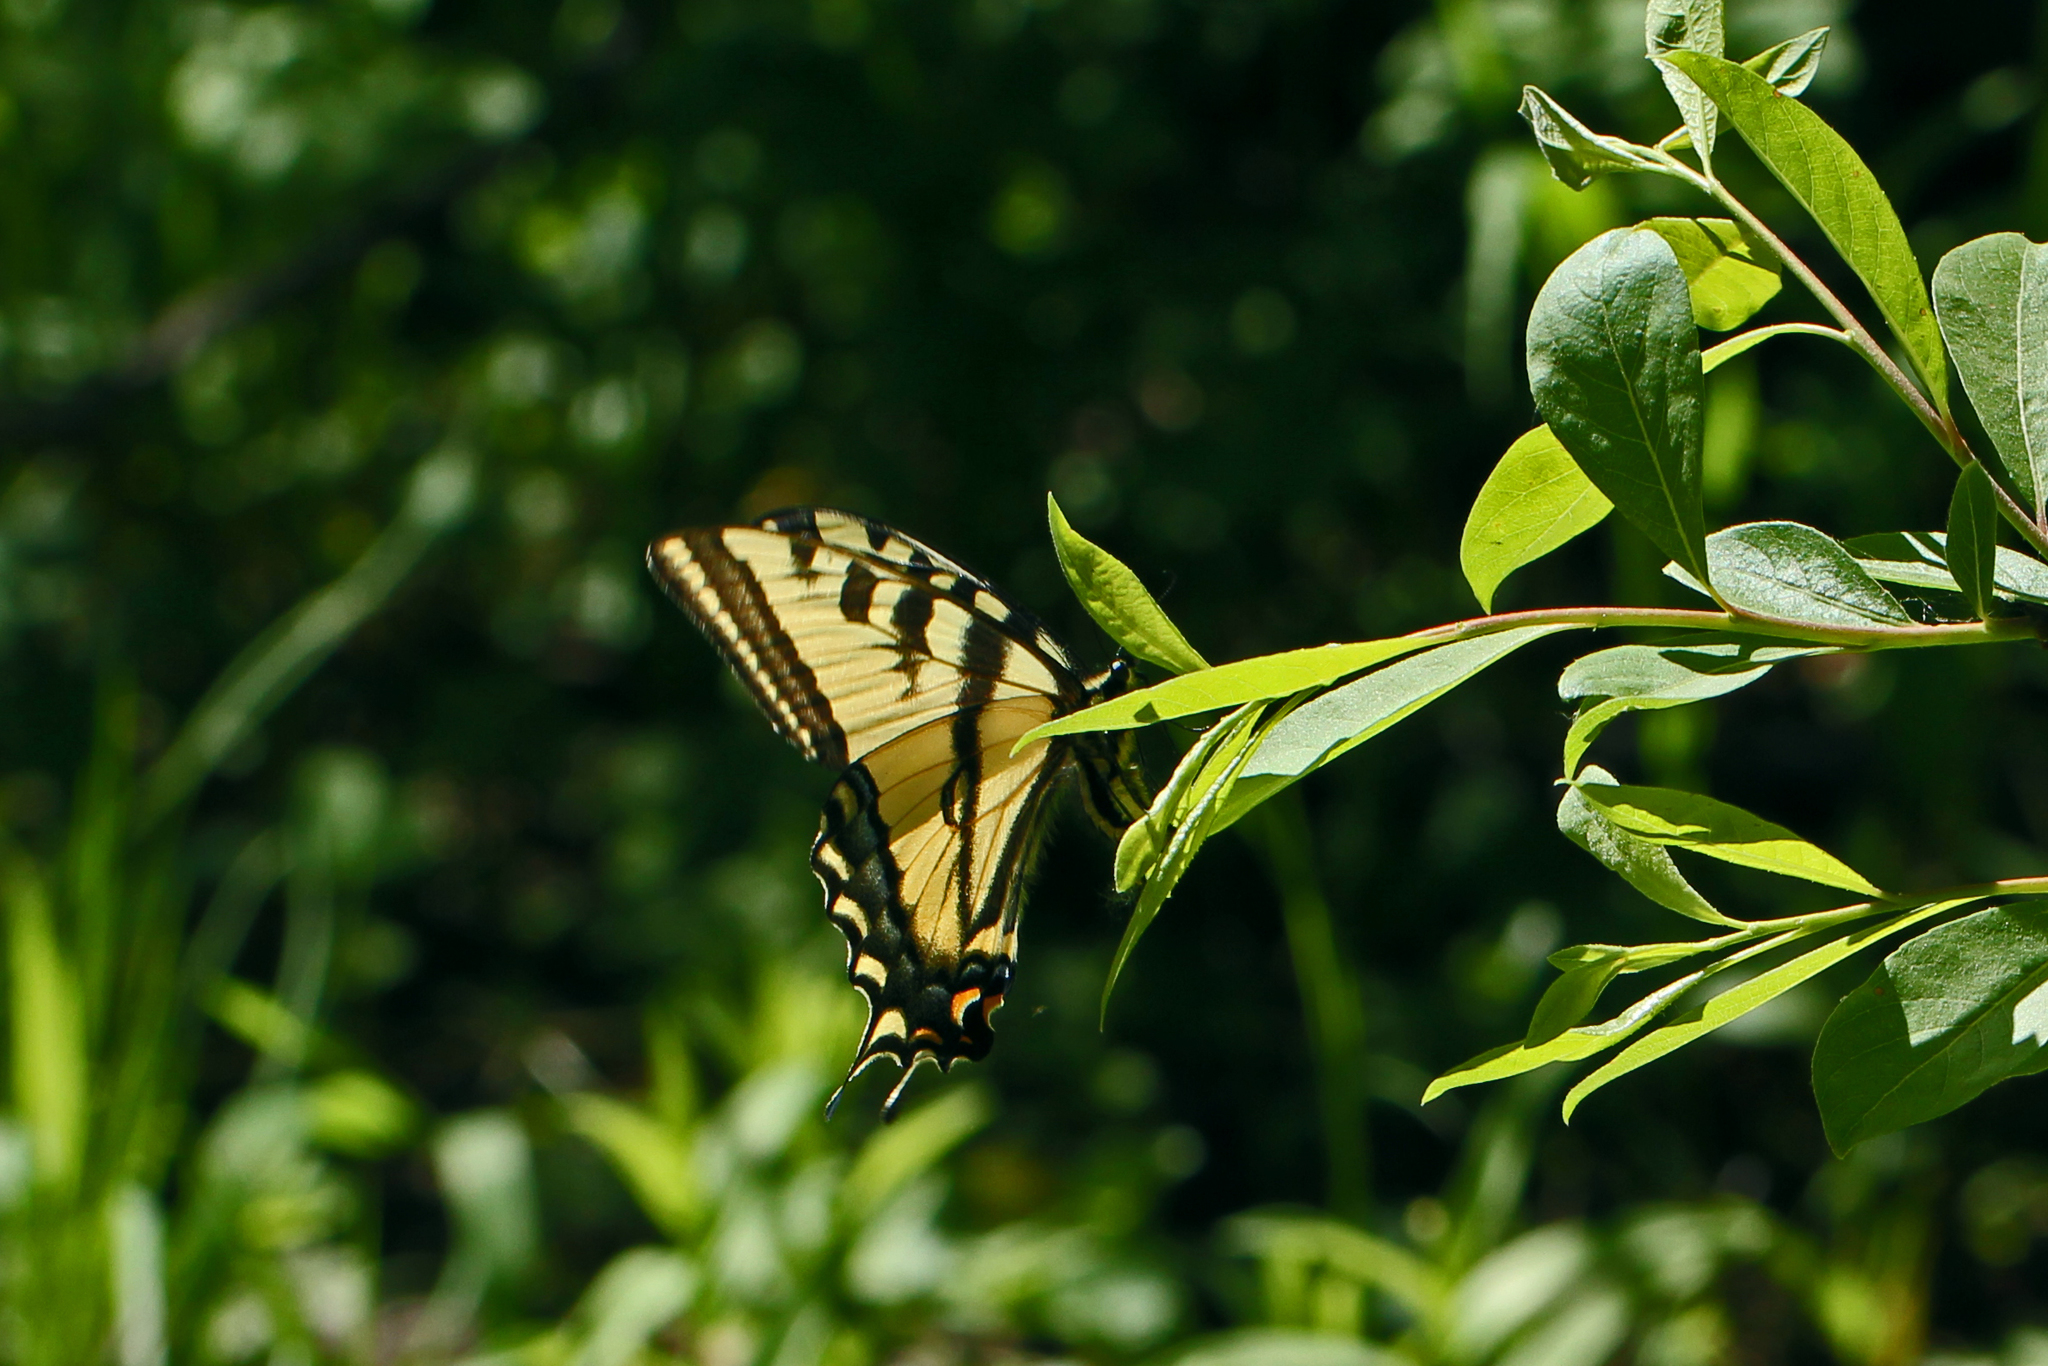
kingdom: Animalia
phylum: Arthropoda
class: Insecta
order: Lepidoptera
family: Papilionidae
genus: Papilio
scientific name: Papilio rutulus
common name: Western tiger swallowtail
